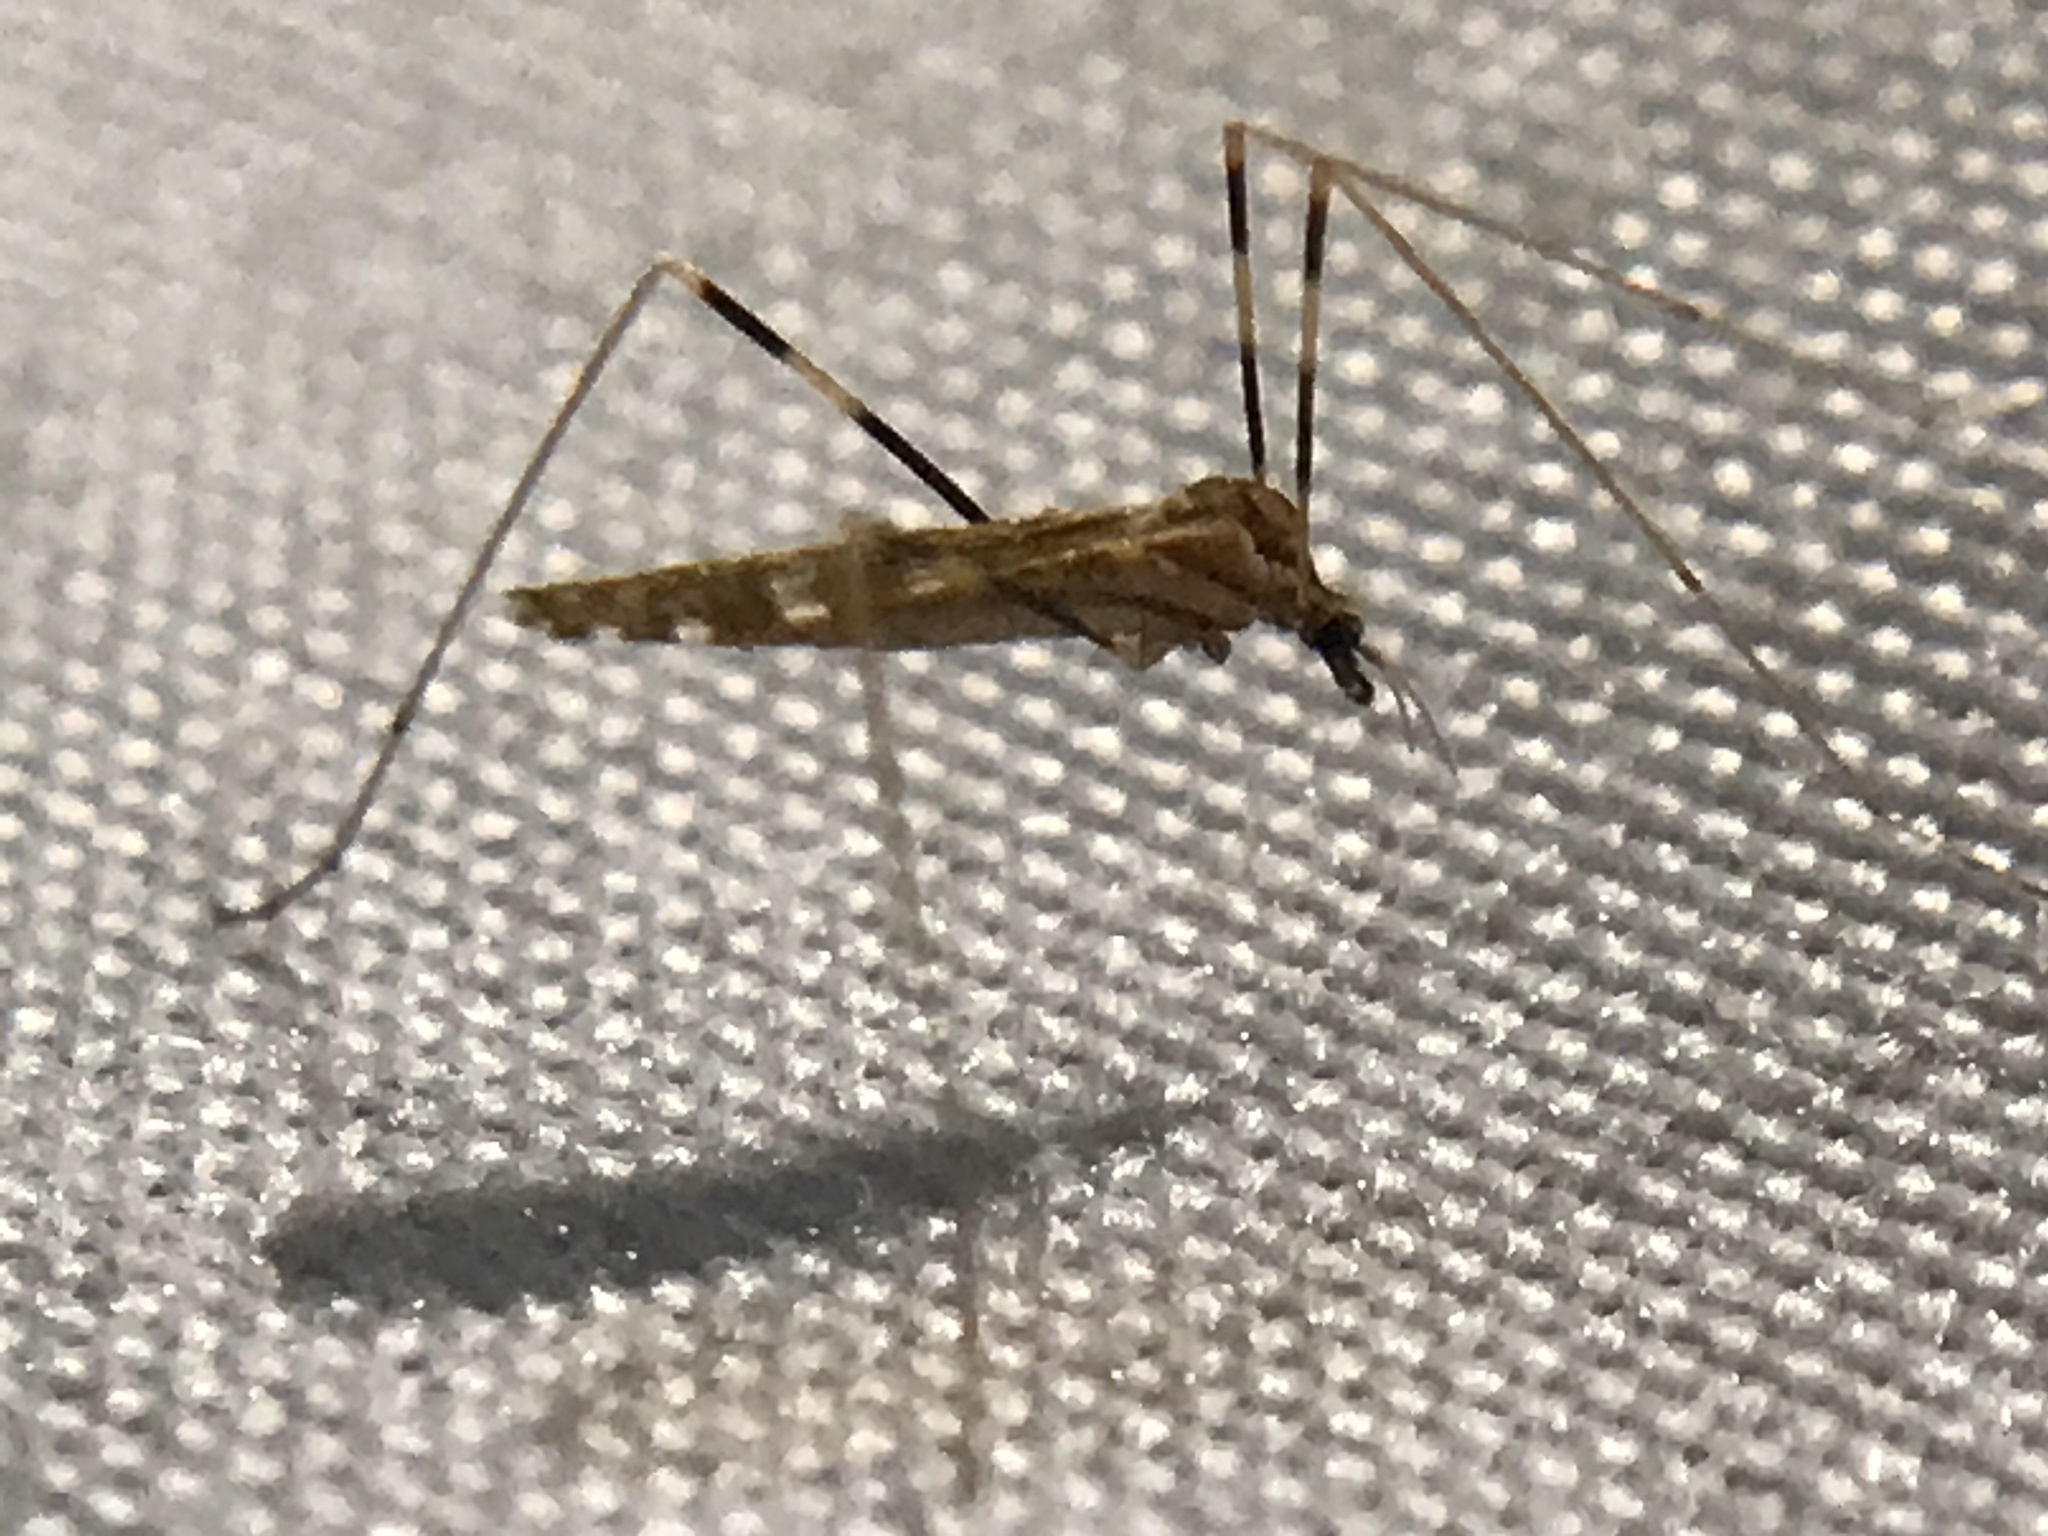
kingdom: Animalia
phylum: Arthropoda
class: Insecta
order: Diptera
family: Limoniidae
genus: Erioptera
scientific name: Erioptera caliptera
